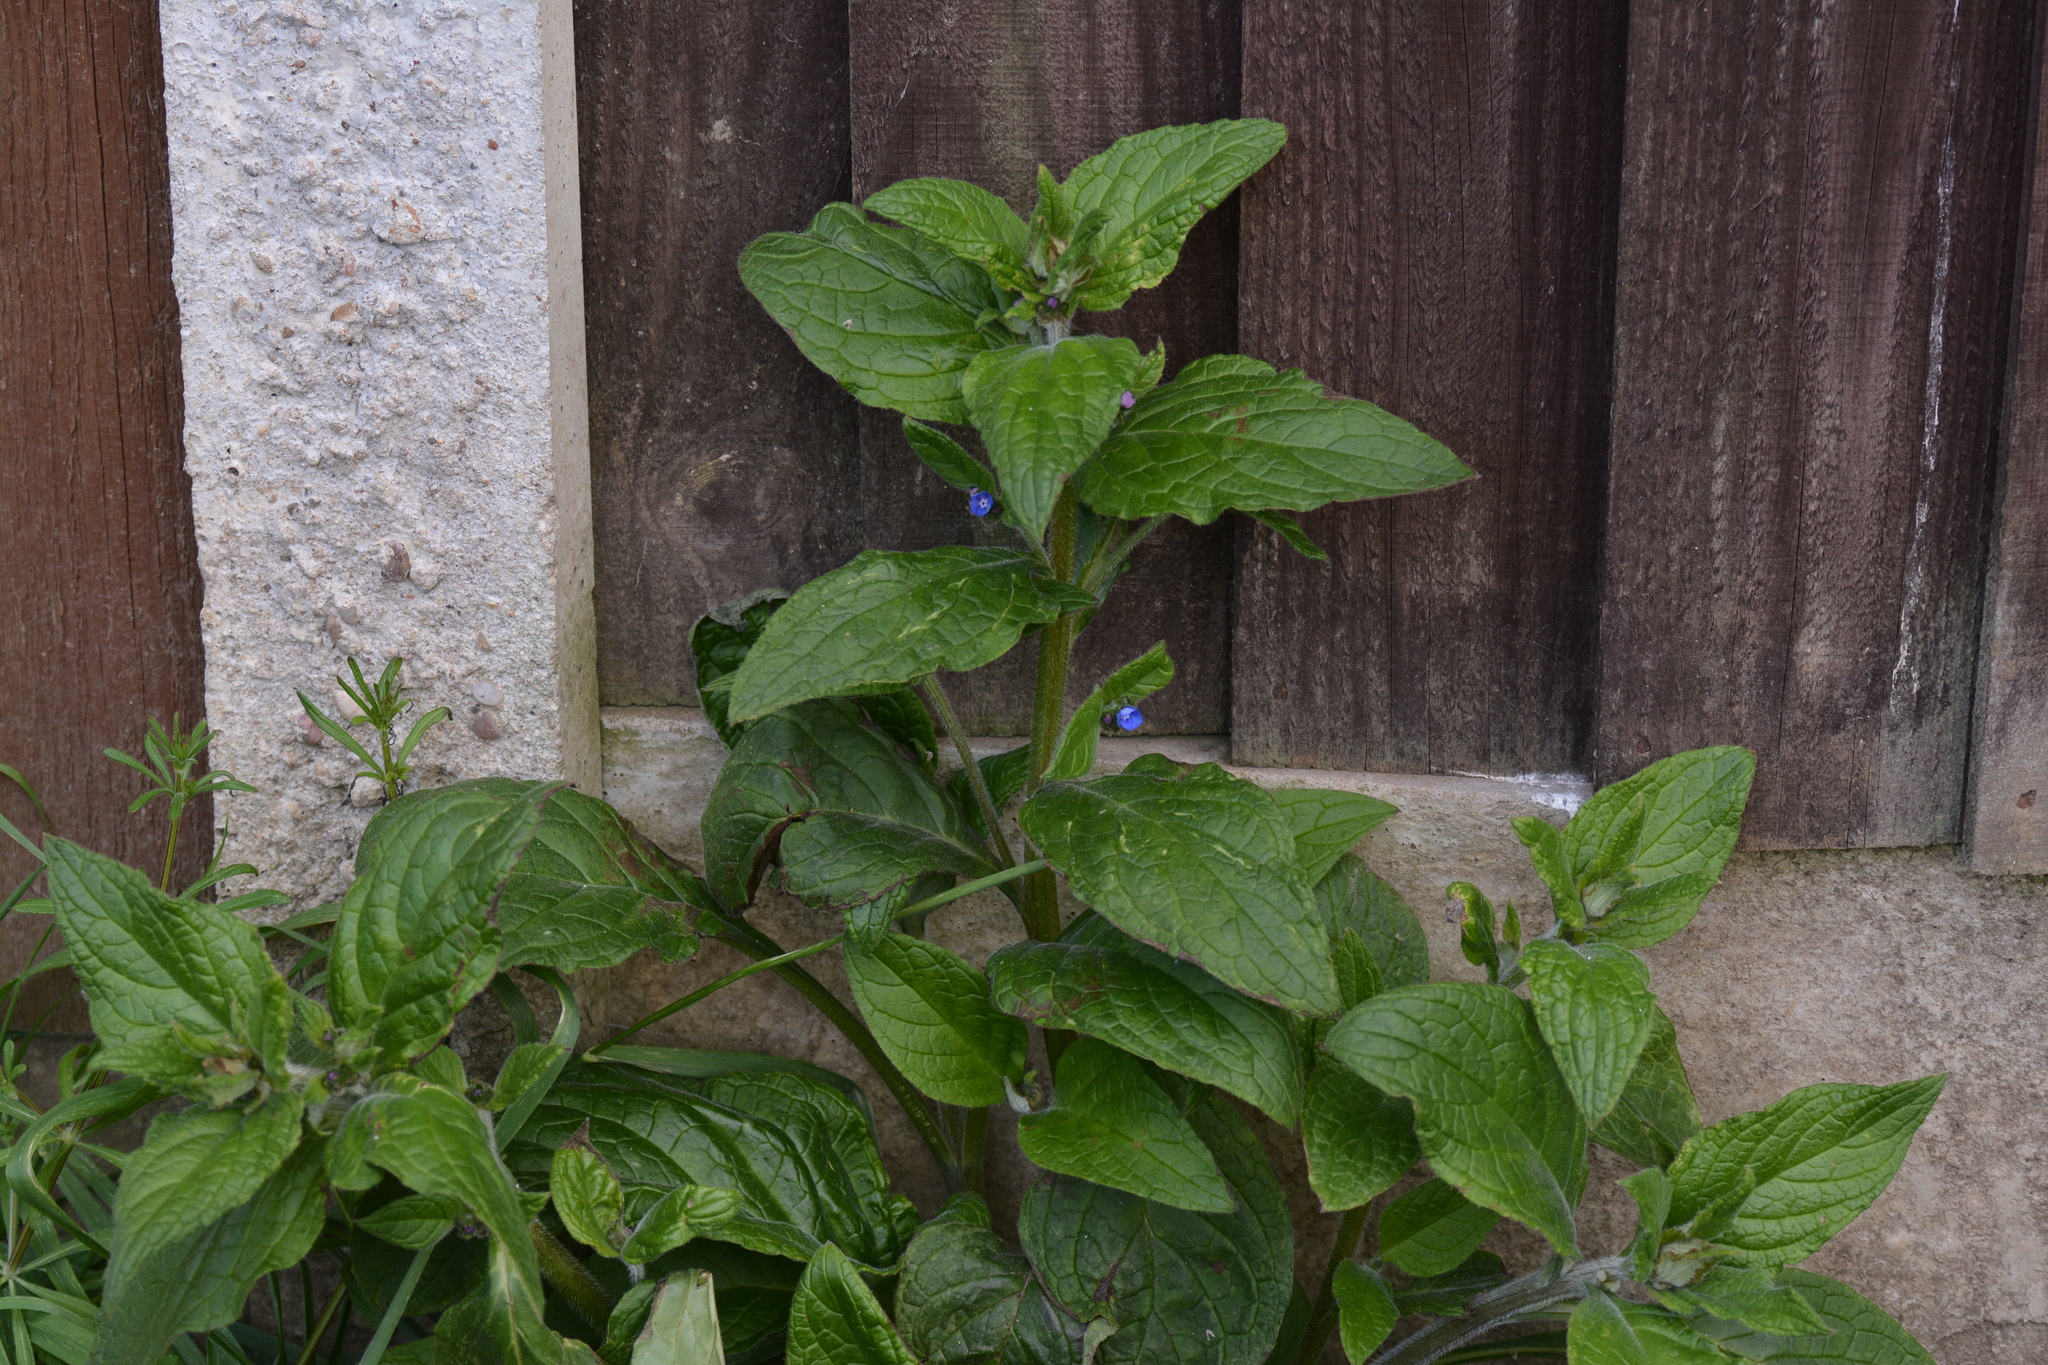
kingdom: Plantae
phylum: Tracheophyta
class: Magnoliopsida
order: Boraginales
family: Boraginaceae
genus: Pentaglottis
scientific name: Pentaglottis sempervirens
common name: Green alkanet
